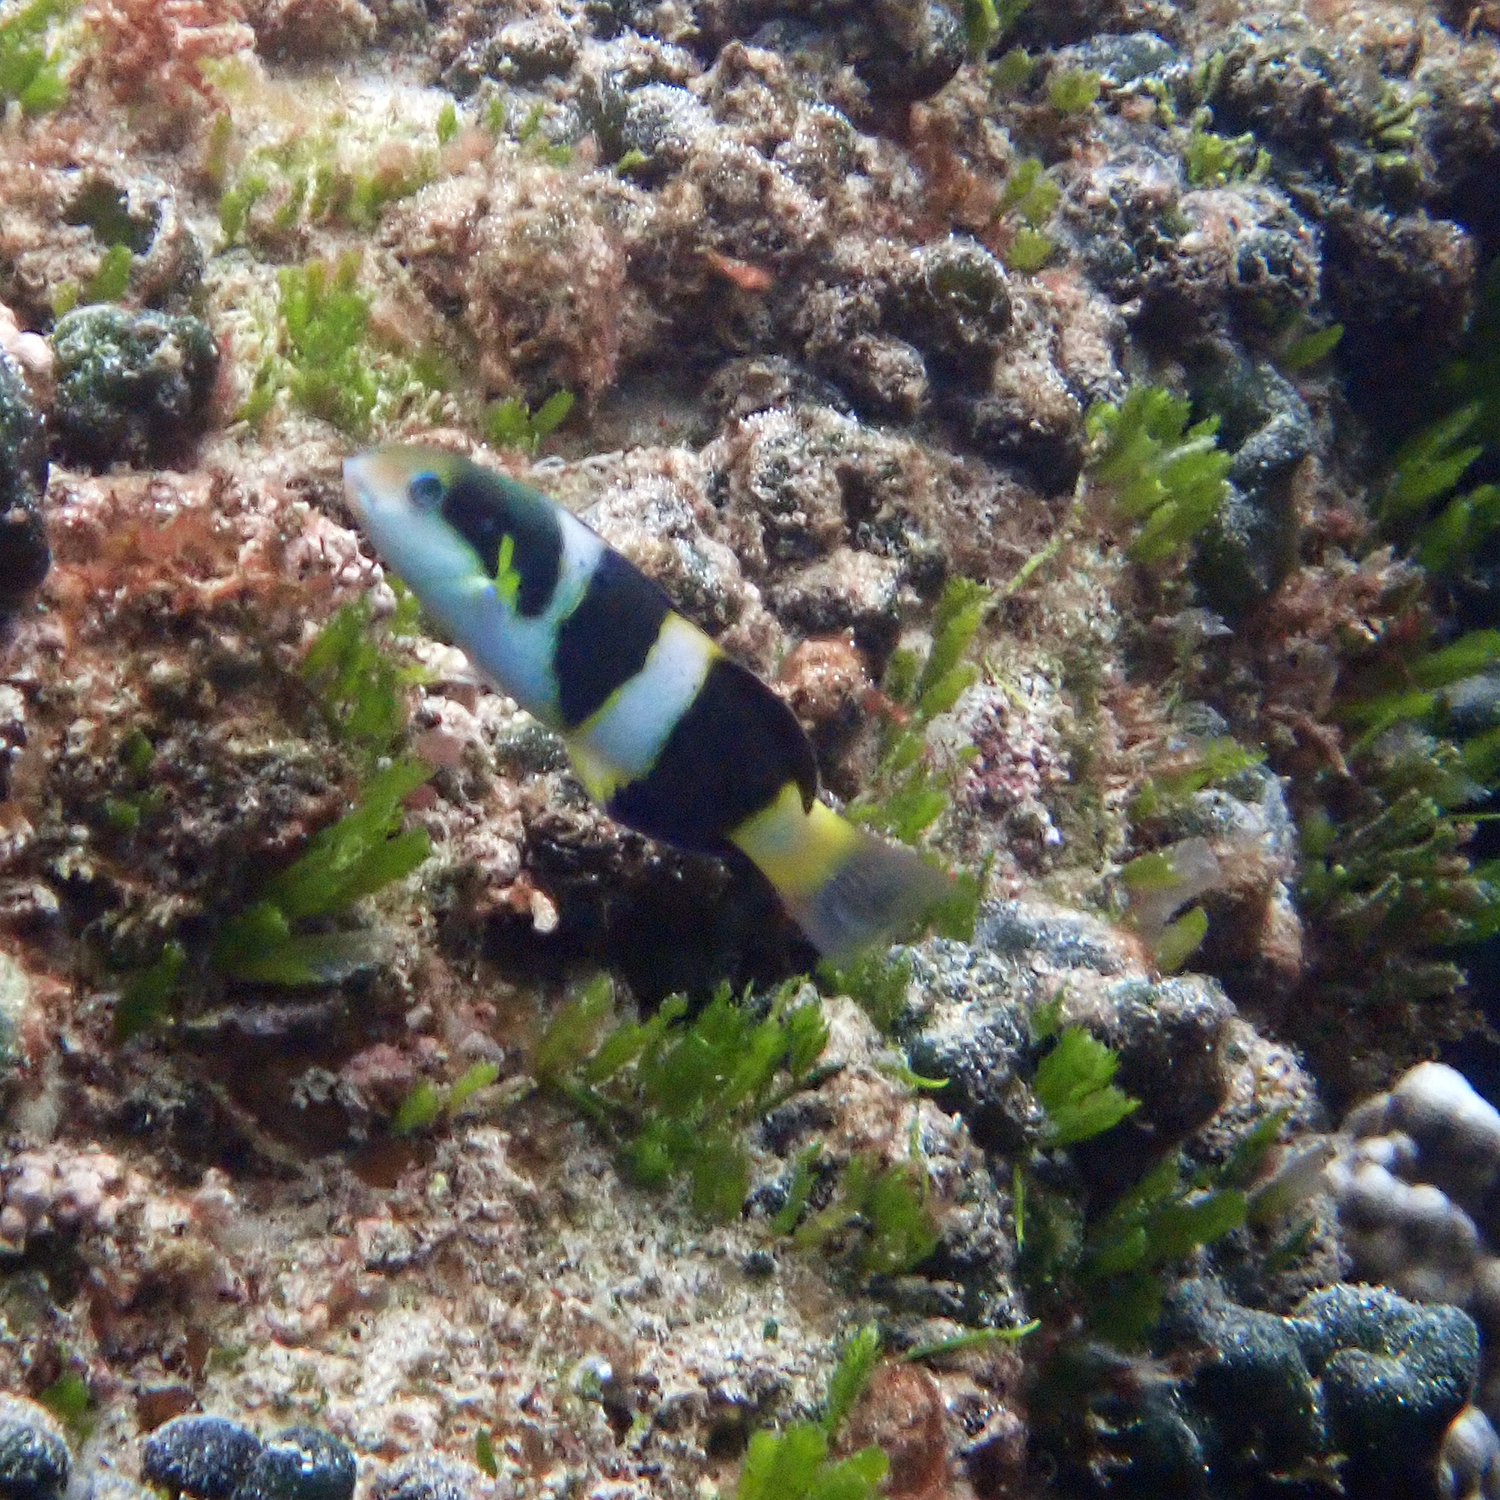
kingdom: Animalia
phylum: Chordata
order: Perciformes
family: Labridae
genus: Thalassoma
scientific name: Thalassoma nigrofasciatum
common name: Black-barred wrasse
